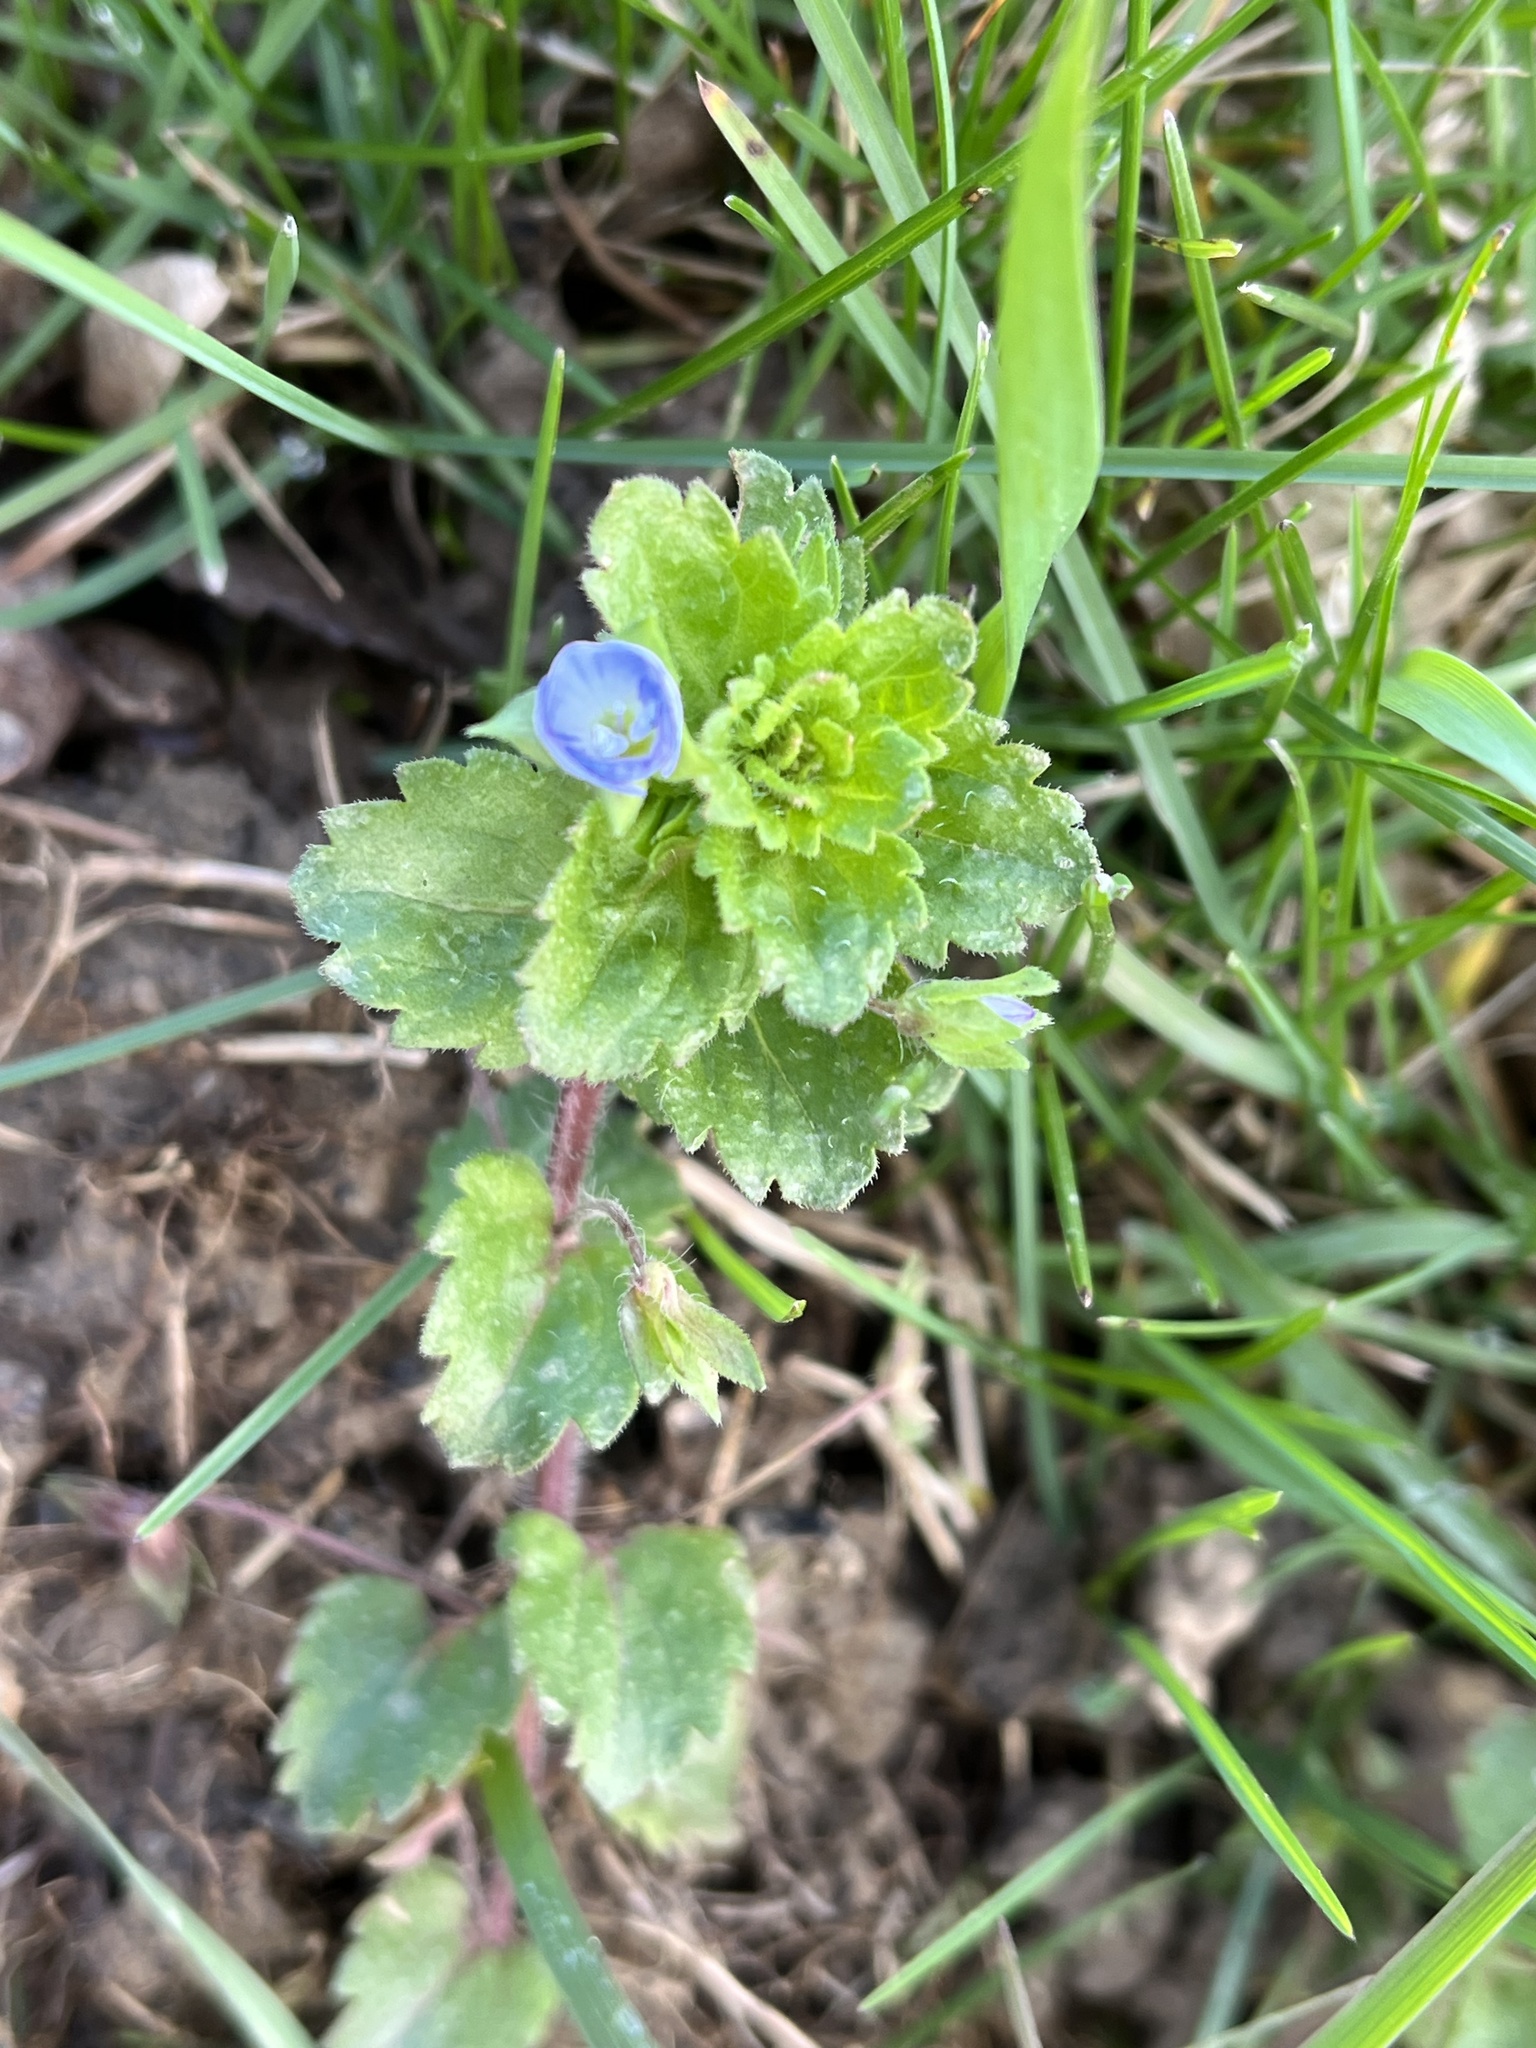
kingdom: Plantae
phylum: Tracheophyta
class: Magnoliopsida
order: Lamiales
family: Plantaginaceae
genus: Veronica
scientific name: Veronica persica
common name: Common field-speedwell
